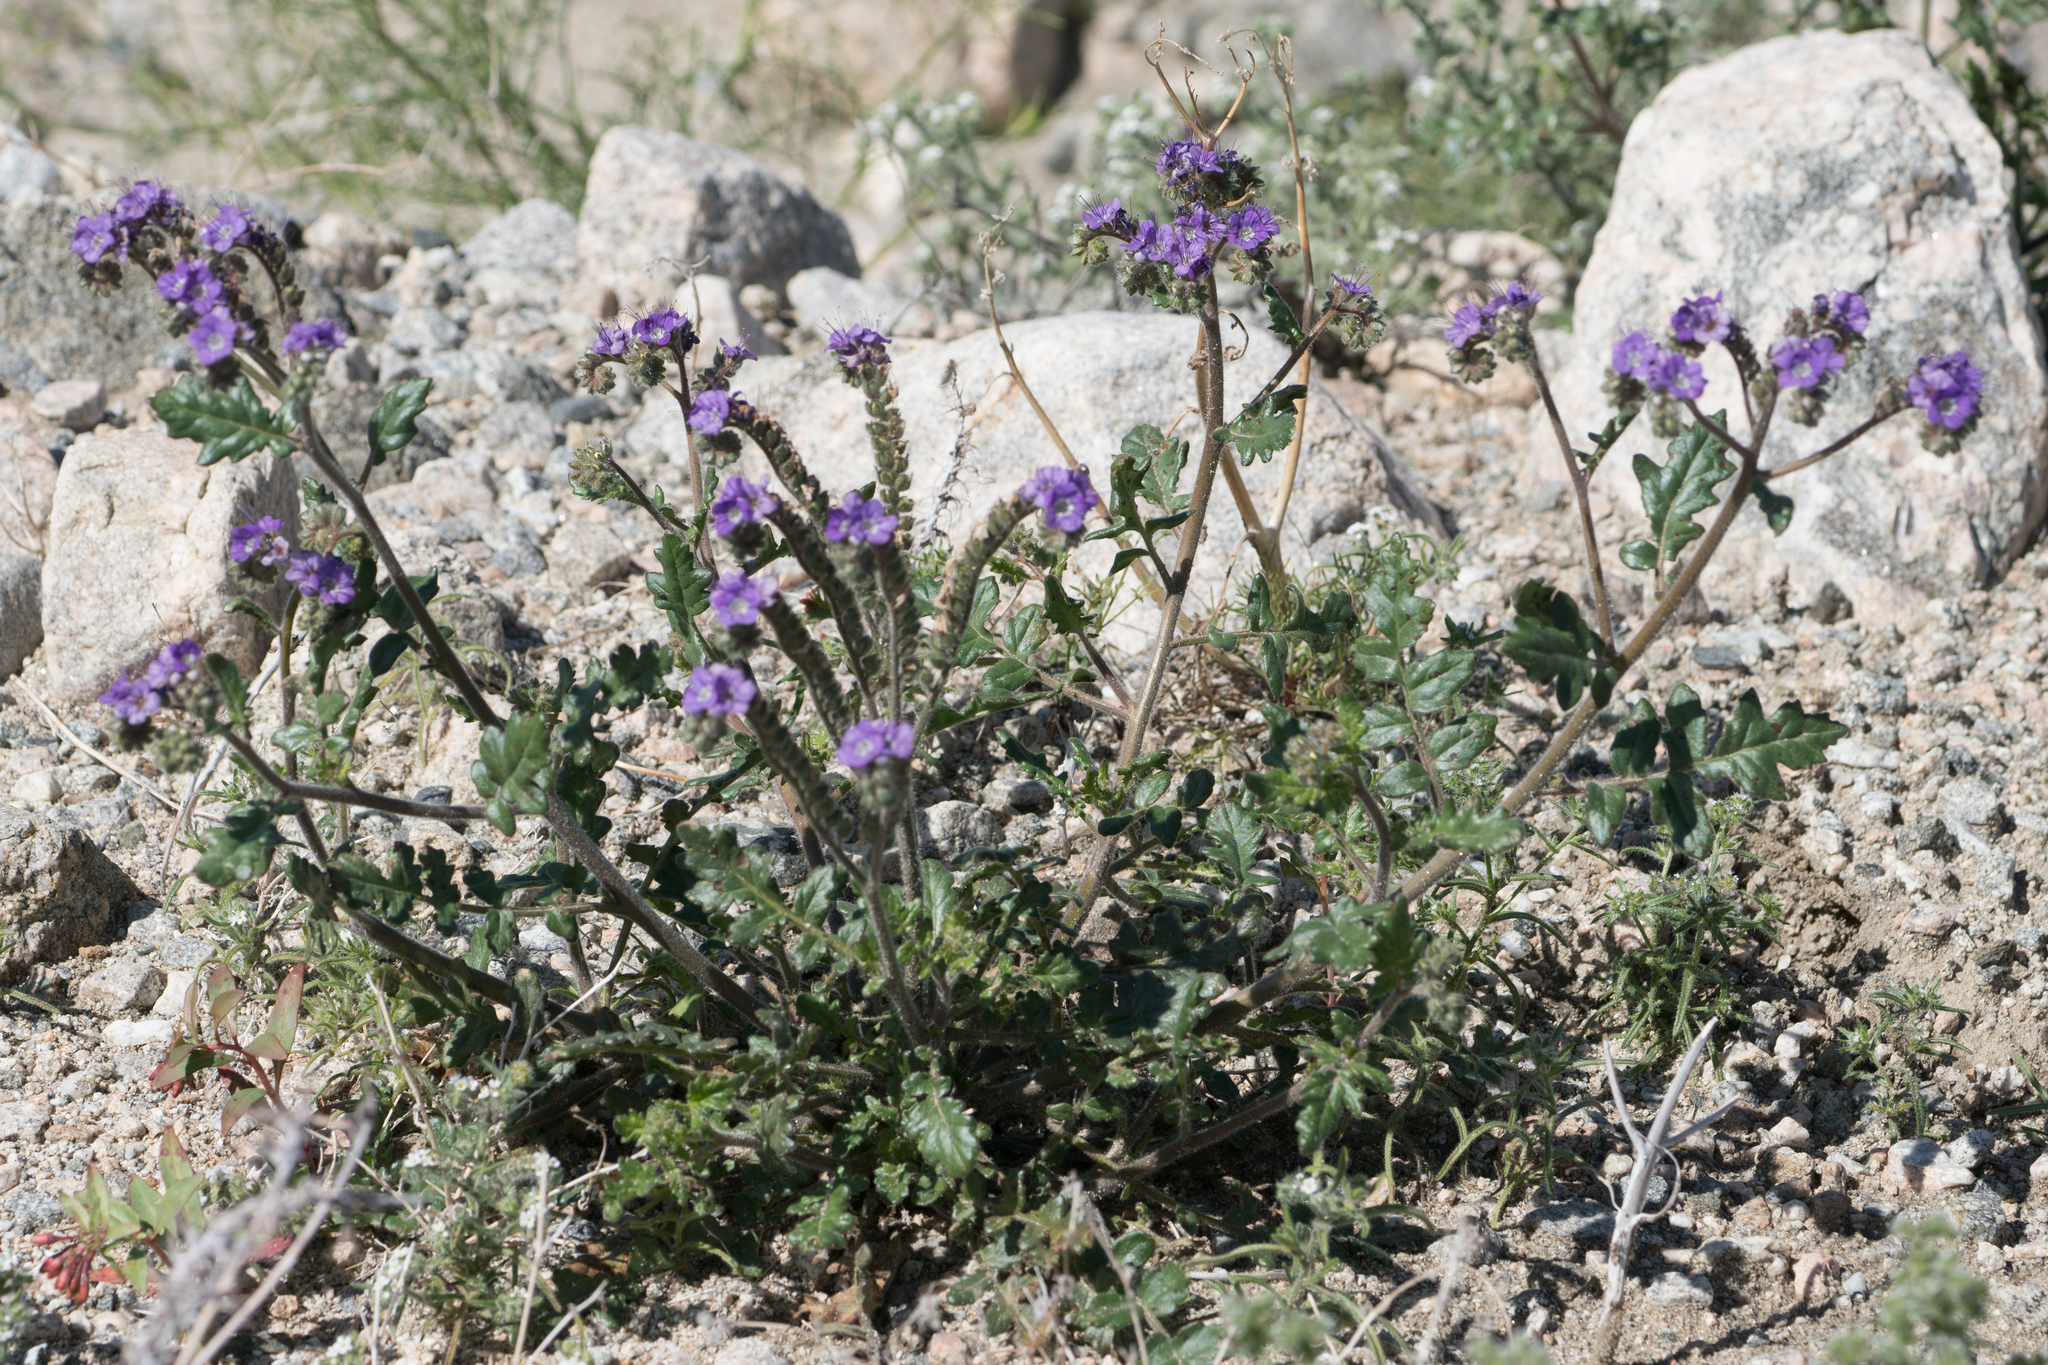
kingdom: Plantae
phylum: Tracheophyta
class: Magnoliopsida
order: Boraginales
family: Hydrophyllaceae
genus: Phacelia
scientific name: Phacelia crenulata
